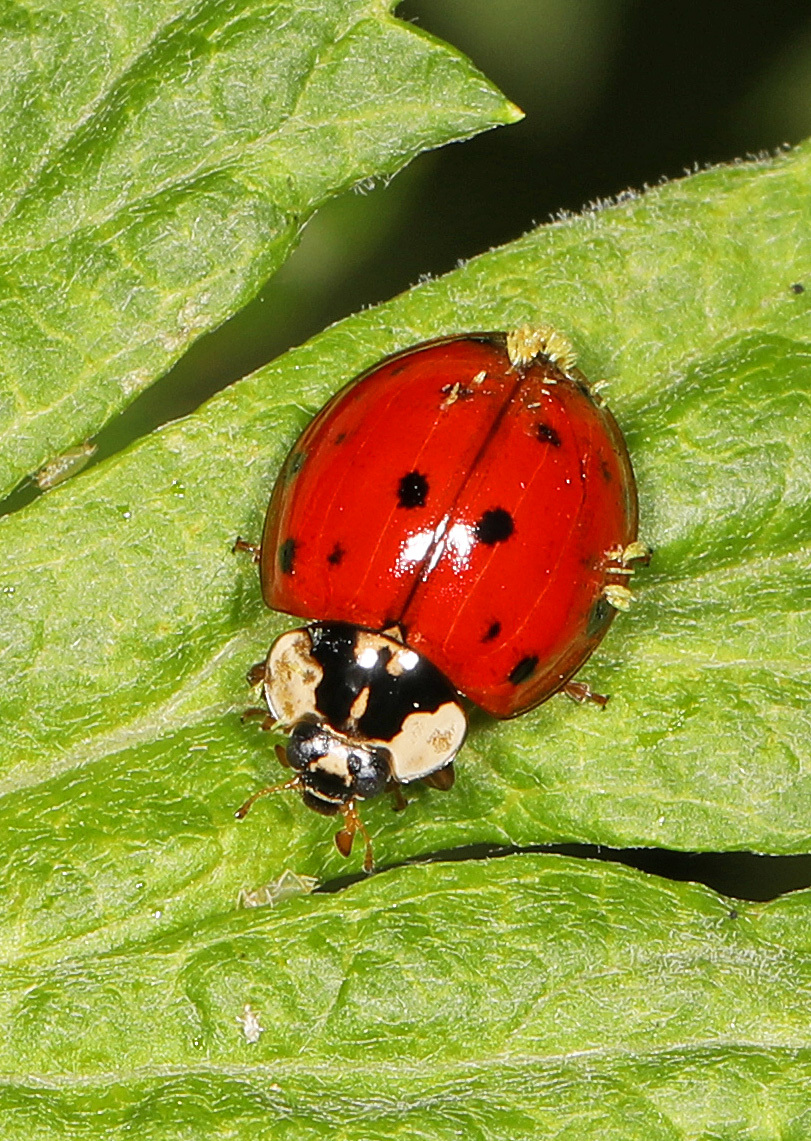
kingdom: Animalia
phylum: Arthropoda
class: Insecta
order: Coleoptera
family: Coccinellidae
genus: Harmonia
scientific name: Harmonia axyridis
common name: Harlequin ladybird
